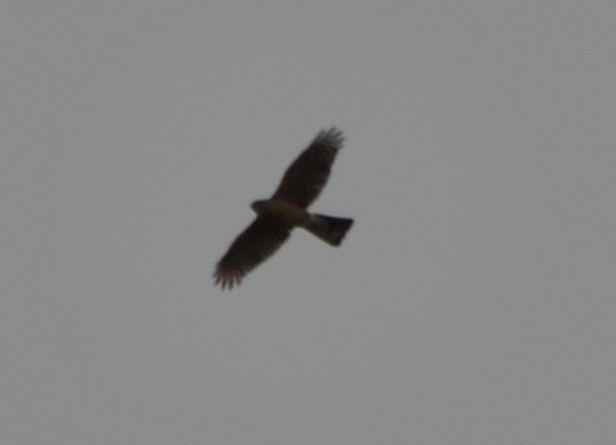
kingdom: Animalia
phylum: Chordata
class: Aves
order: Accipitriformes
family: Accipitridae
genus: Accipiter
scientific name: Accipiter striatus
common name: Sharp-shinned hawk
